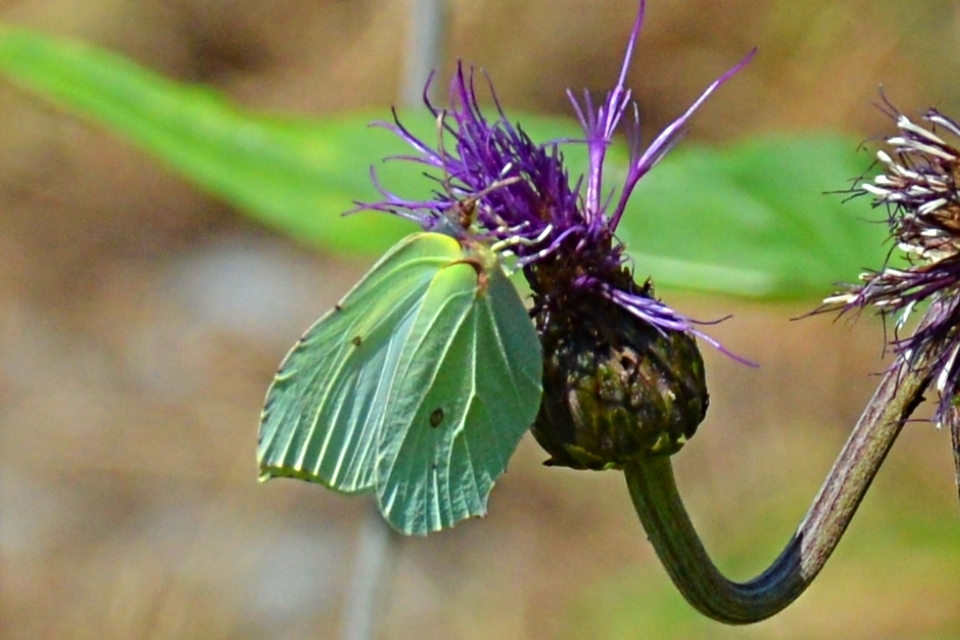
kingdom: Animalia
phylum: Arthropoda
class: Insecta
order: Lepidoptera
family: Pieridae
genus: Gonepteryx
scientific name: Gonepteryx rhamni
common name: Brimstone
